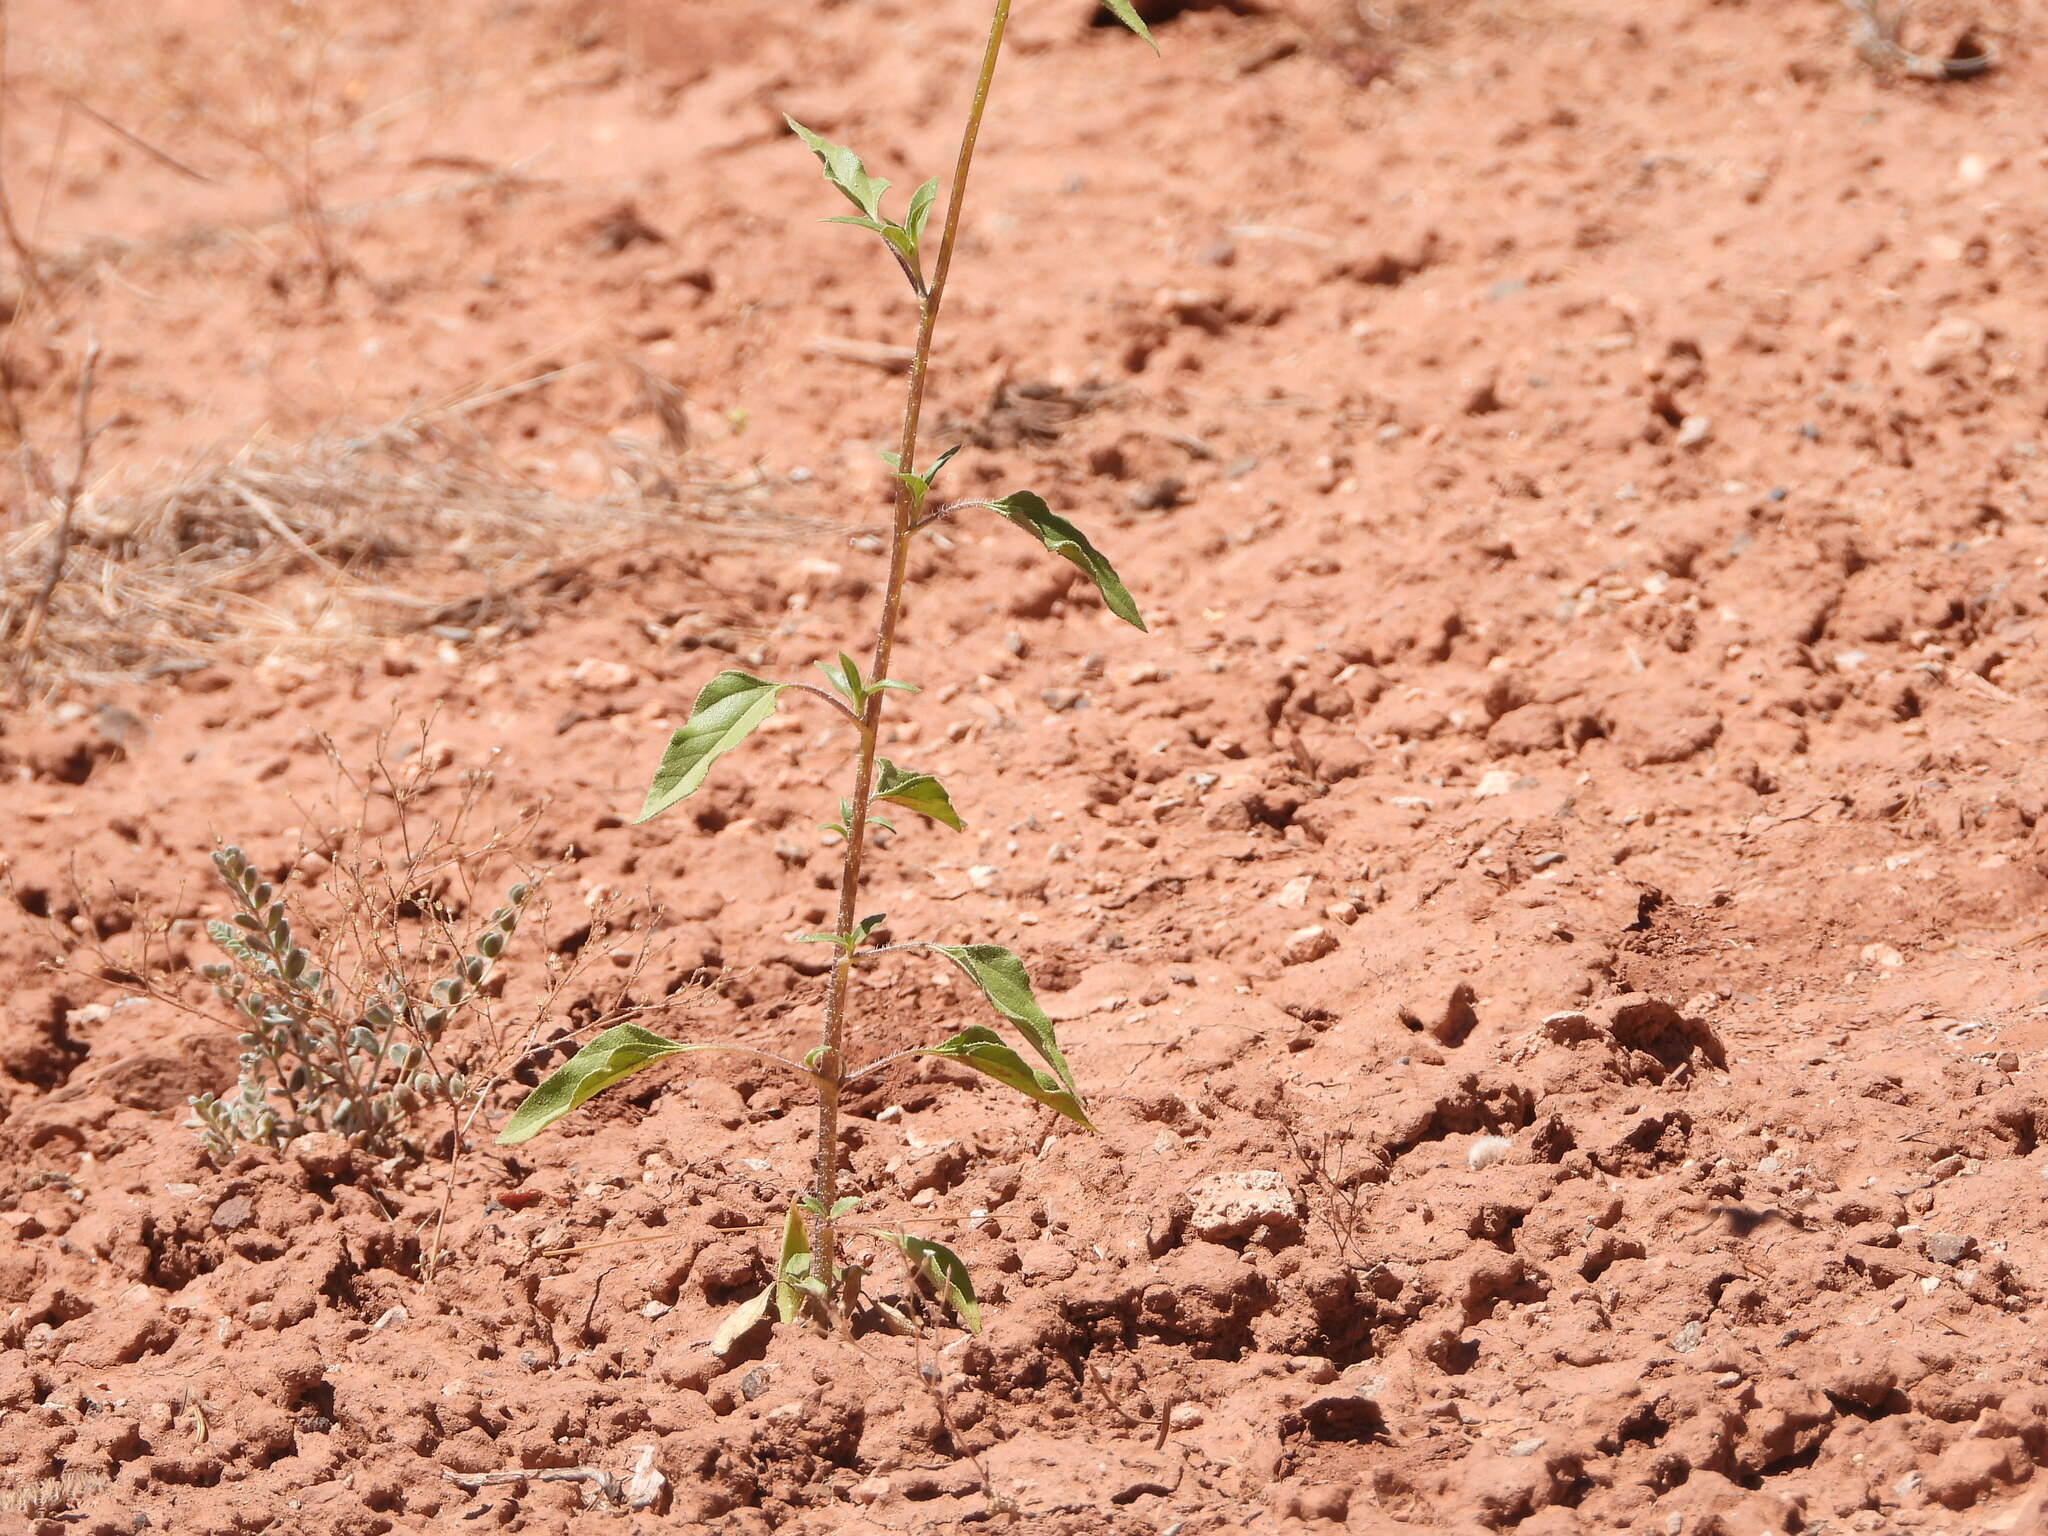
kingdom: Plantae
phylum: Tracheophyta
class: Magnoliopsida
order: Asterales
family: Asteraceae
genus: Helianthus
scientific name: Helianthus petiolaris
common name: Lesser sunflower
